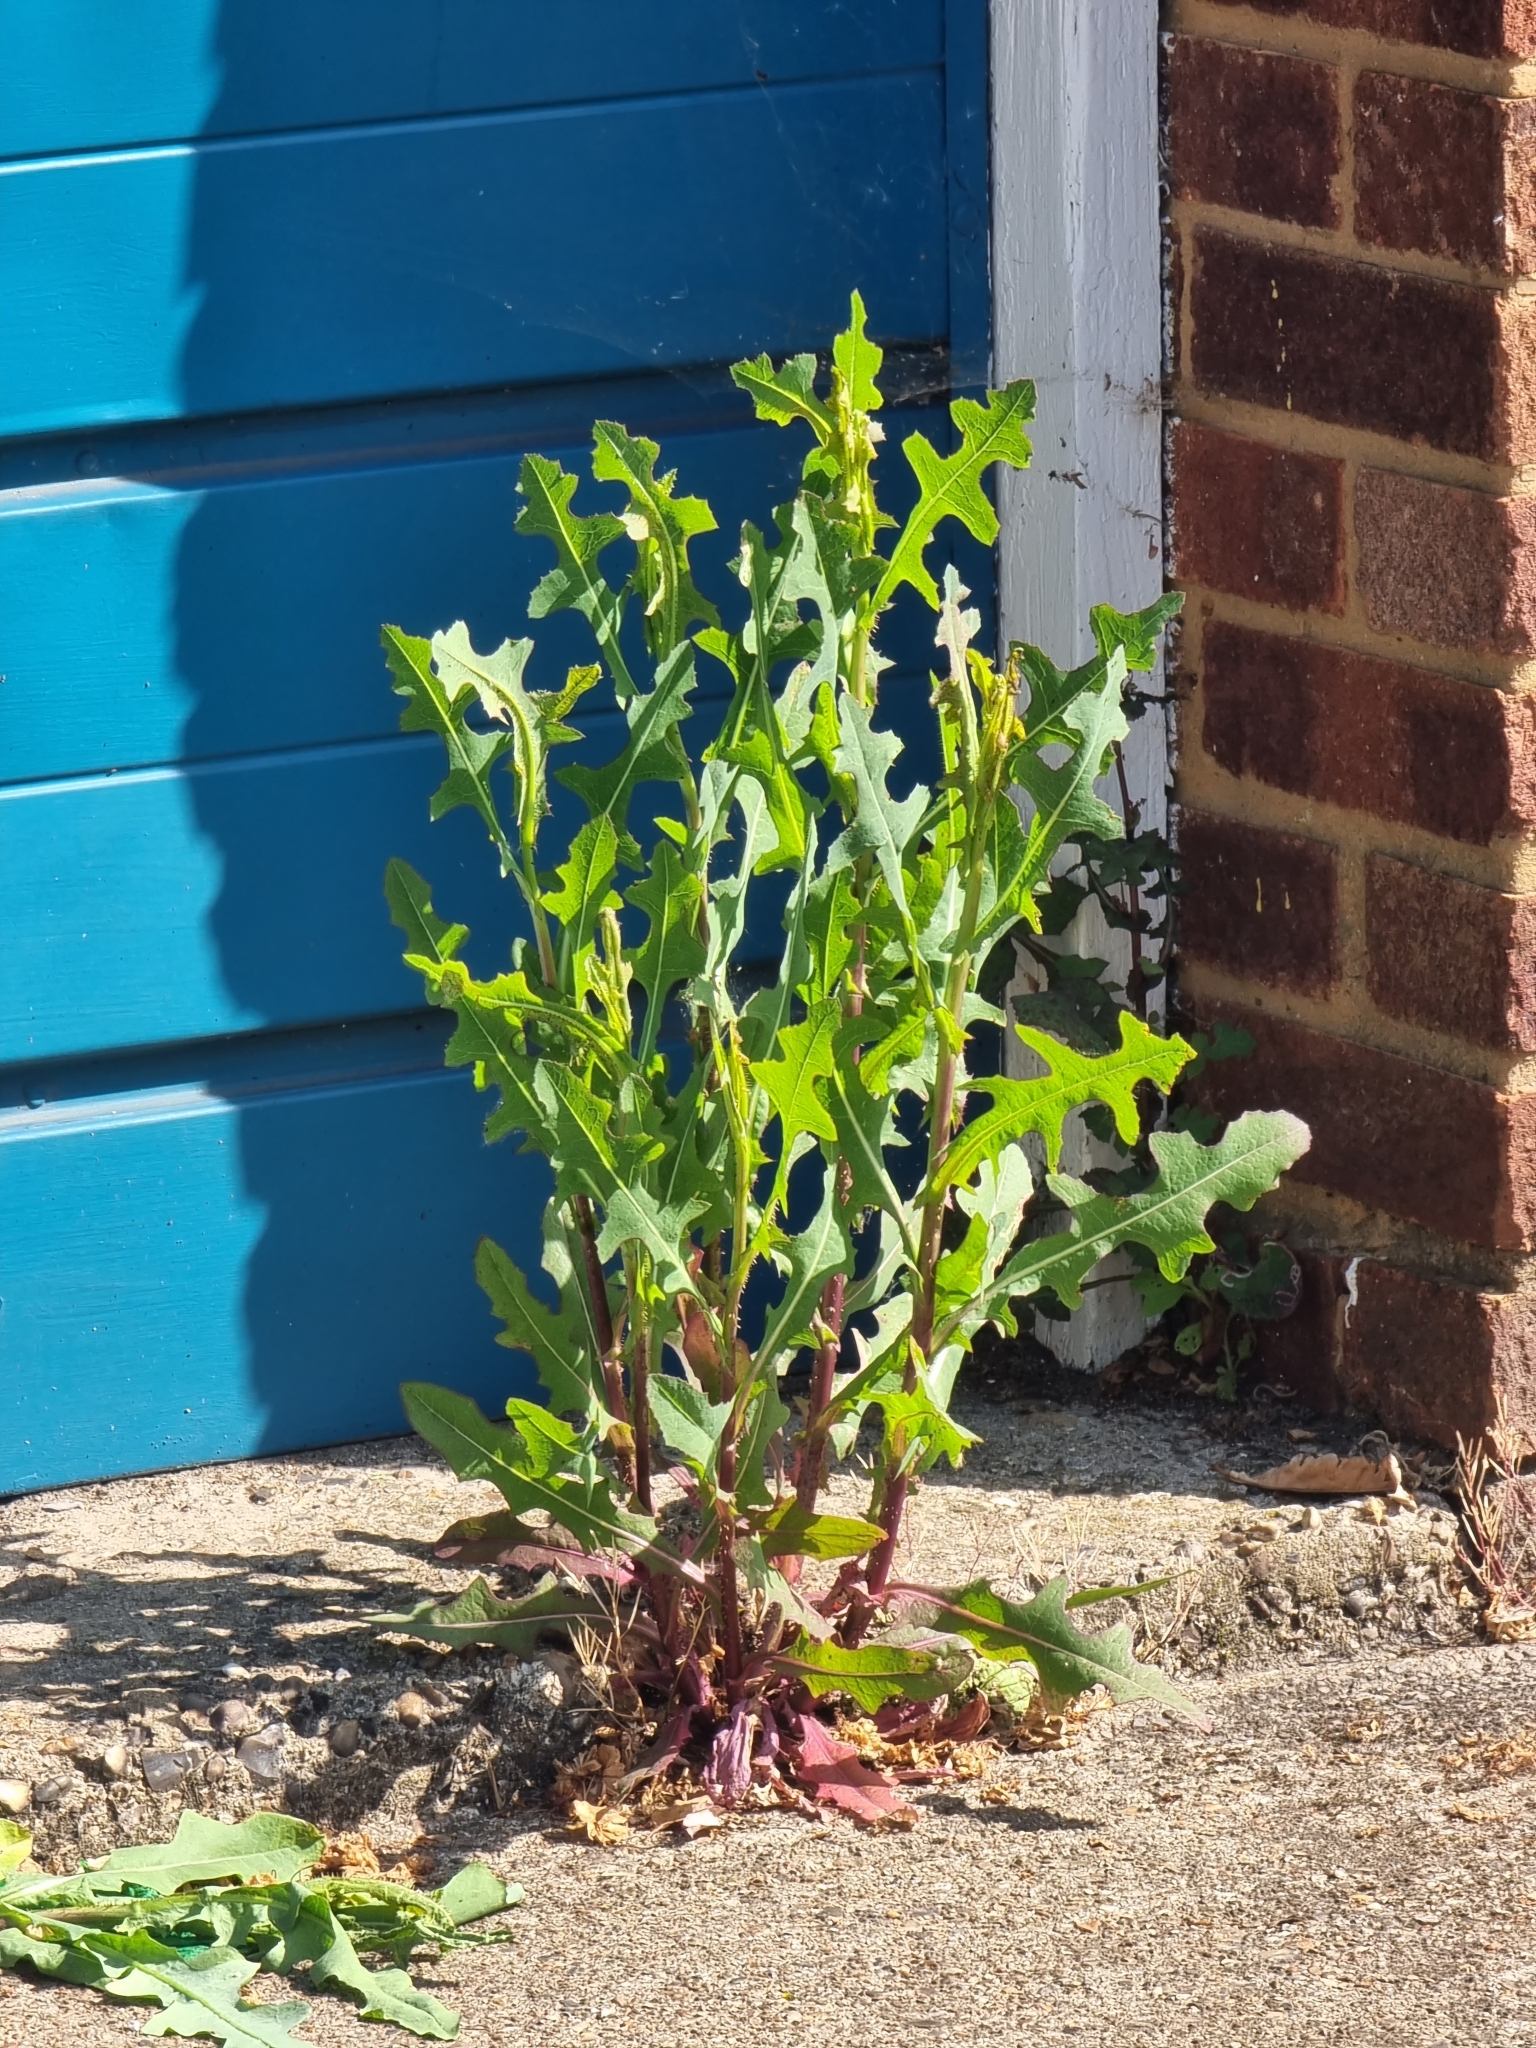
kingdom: Plantae
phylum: Tracheophyta
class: Magnoliopsida
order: Asterales
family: Asteraceae
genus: Lactuca
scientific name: Lactuca serriola
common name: Prickly lettuce
